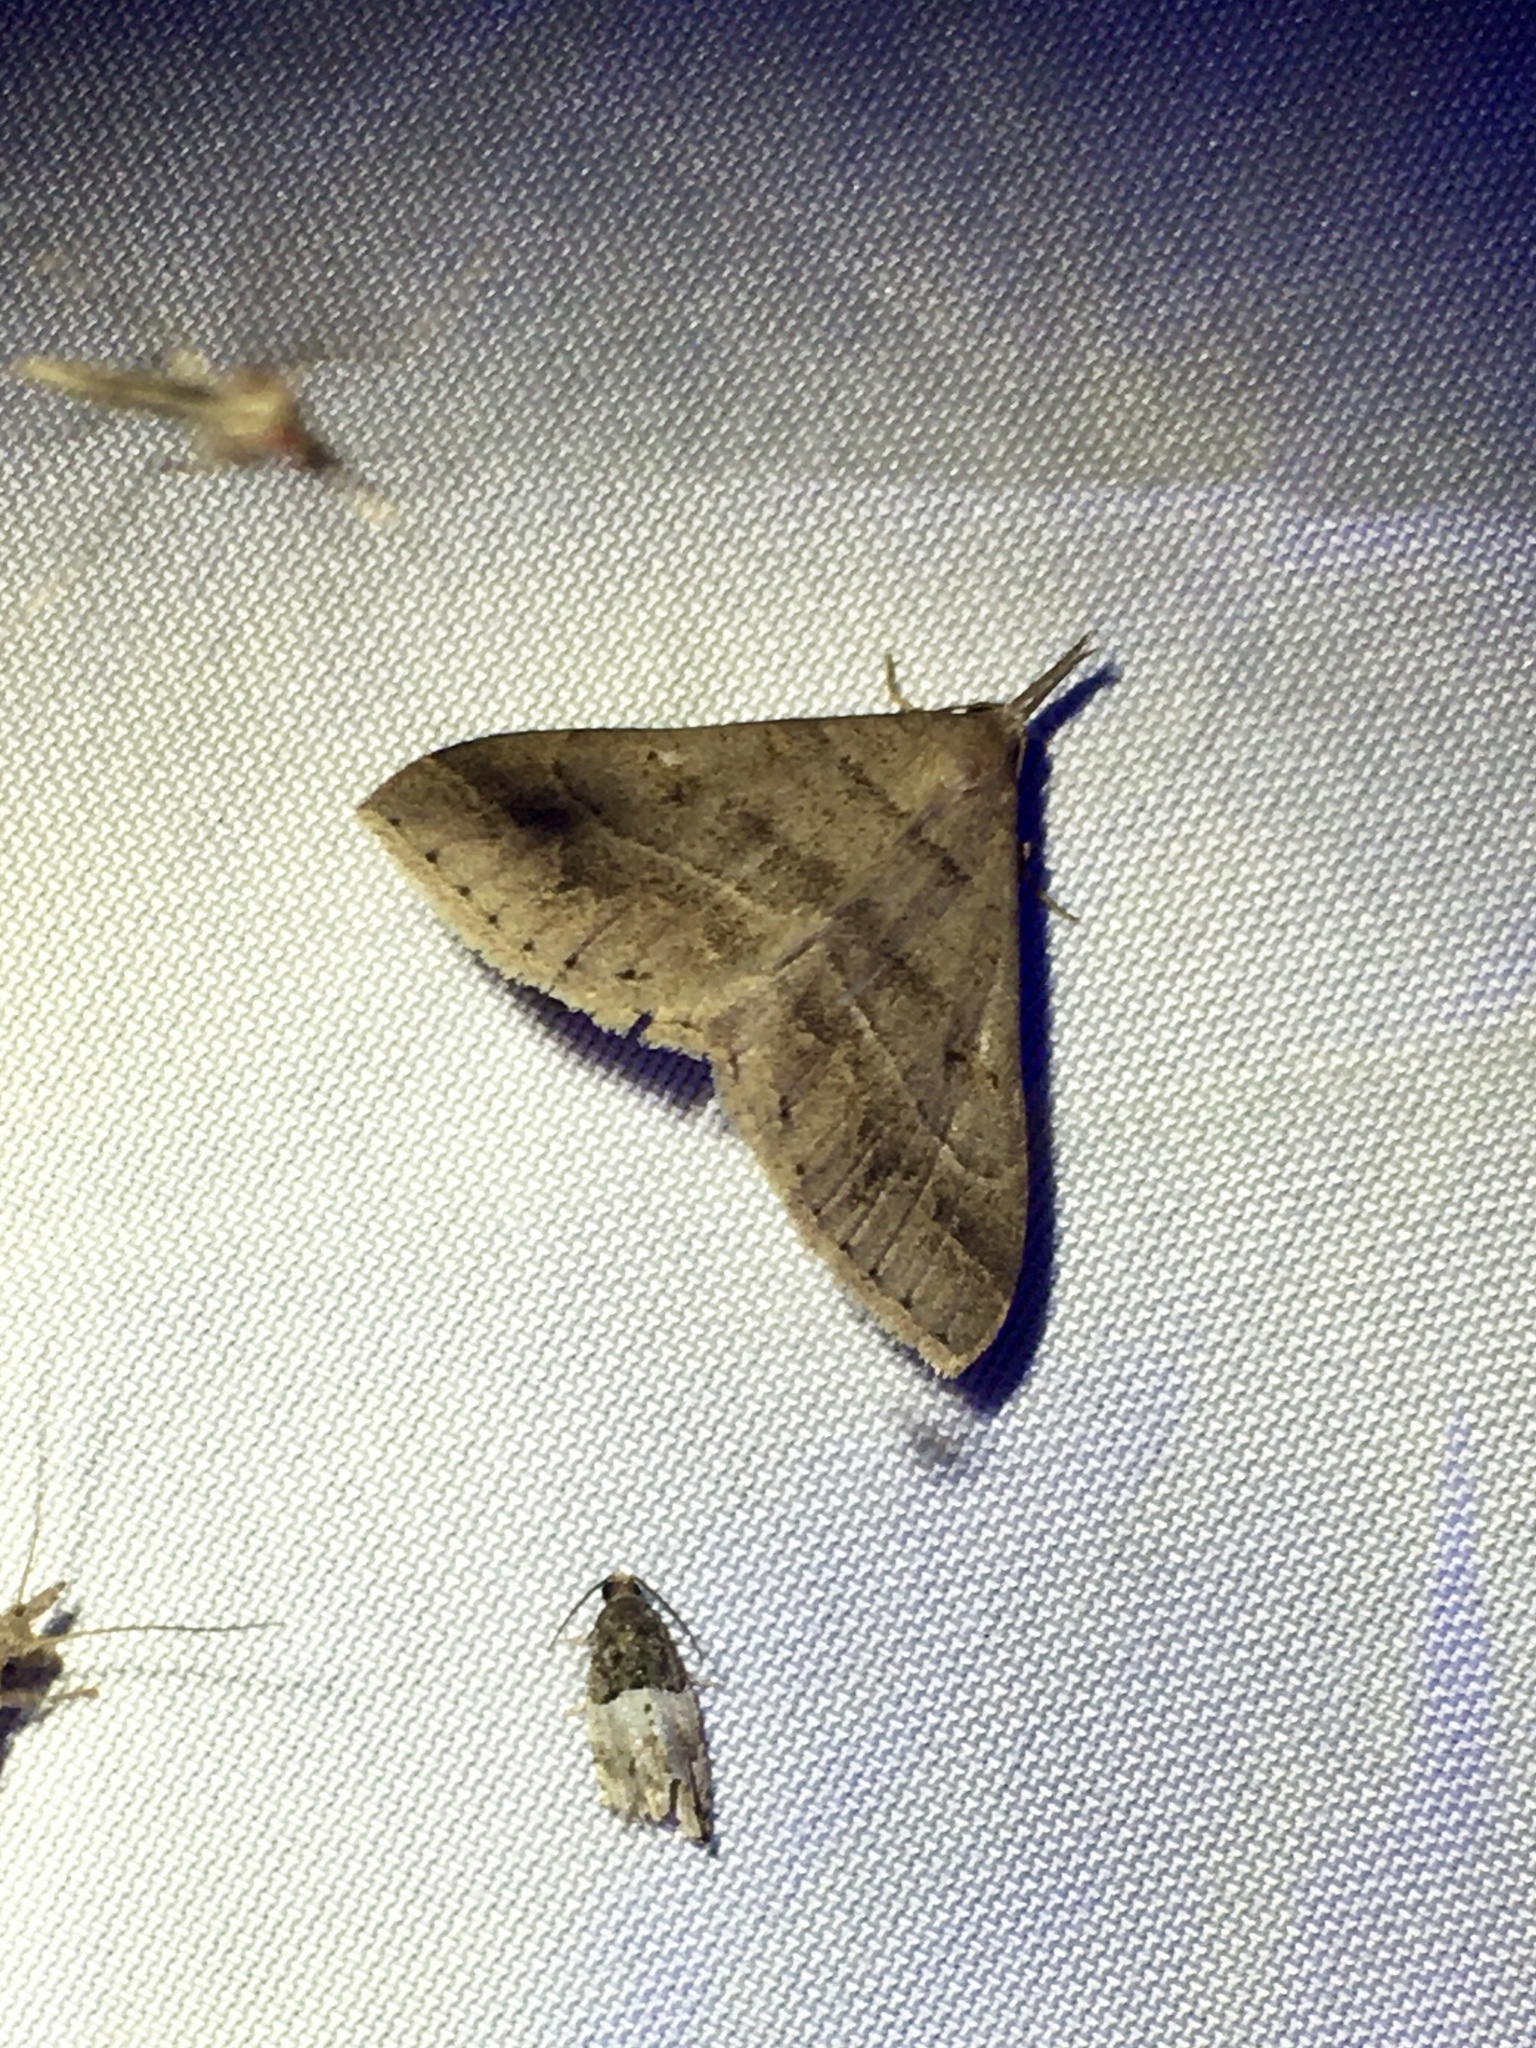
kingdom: Animalia
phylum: Arthropoda
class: Insecta
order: Lepidoptera
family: Erebidae
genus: Renia
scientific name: Renia flavipunctalis
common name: Yellow-spotted renia moth
